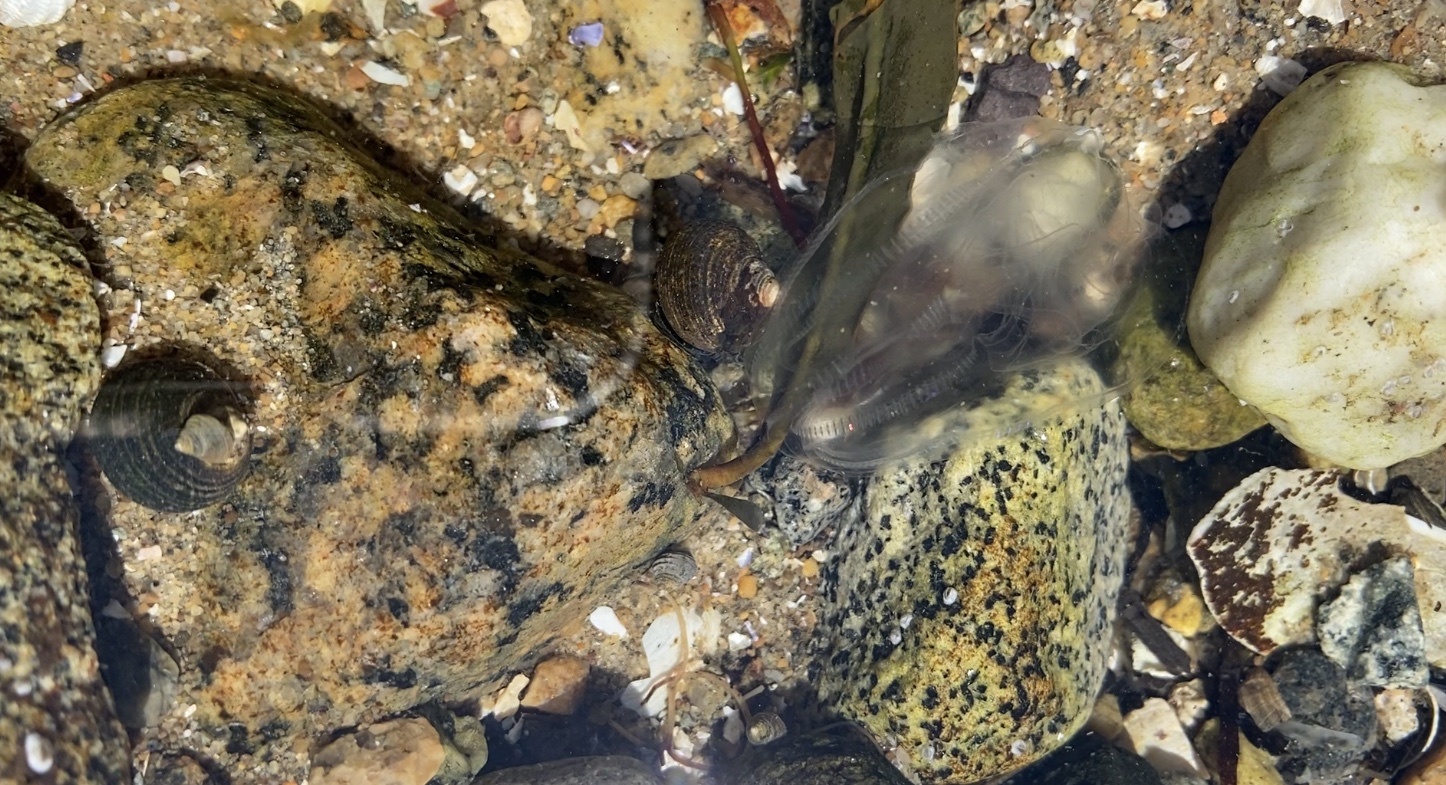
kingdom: Animalia
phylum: Ctenophora
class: Tentaculata
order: Lobata
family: Bolinopsidae
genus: Bolinopsis
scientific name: Bolinopsis infundibulum
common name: Common northern comb jelly
